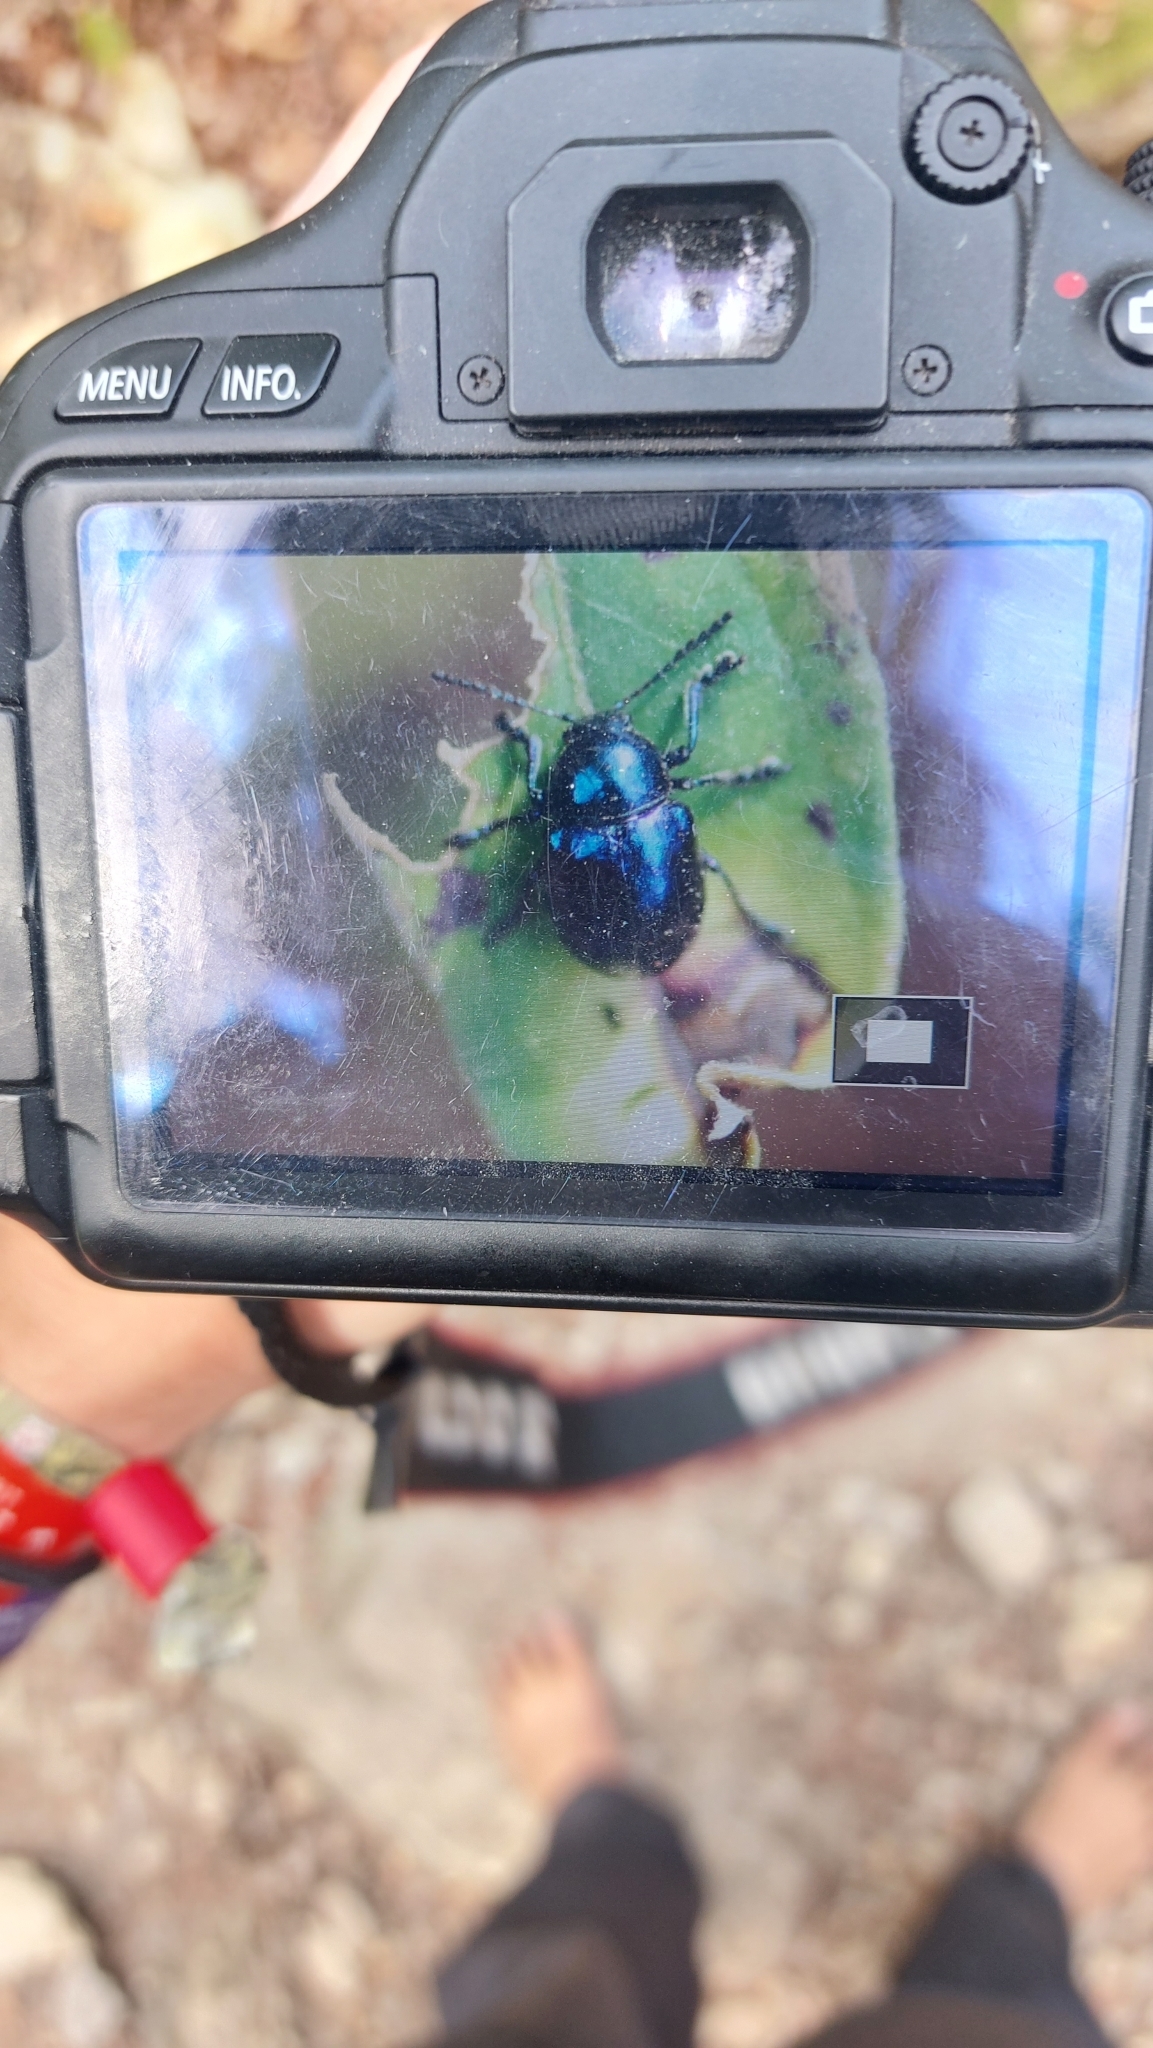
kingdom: Animalia
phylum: Arthropoda
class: Insecta
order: Coleoptera
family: Chrysomelidae
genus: Chrysochus
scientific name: Chrysochus asclepiadeus
